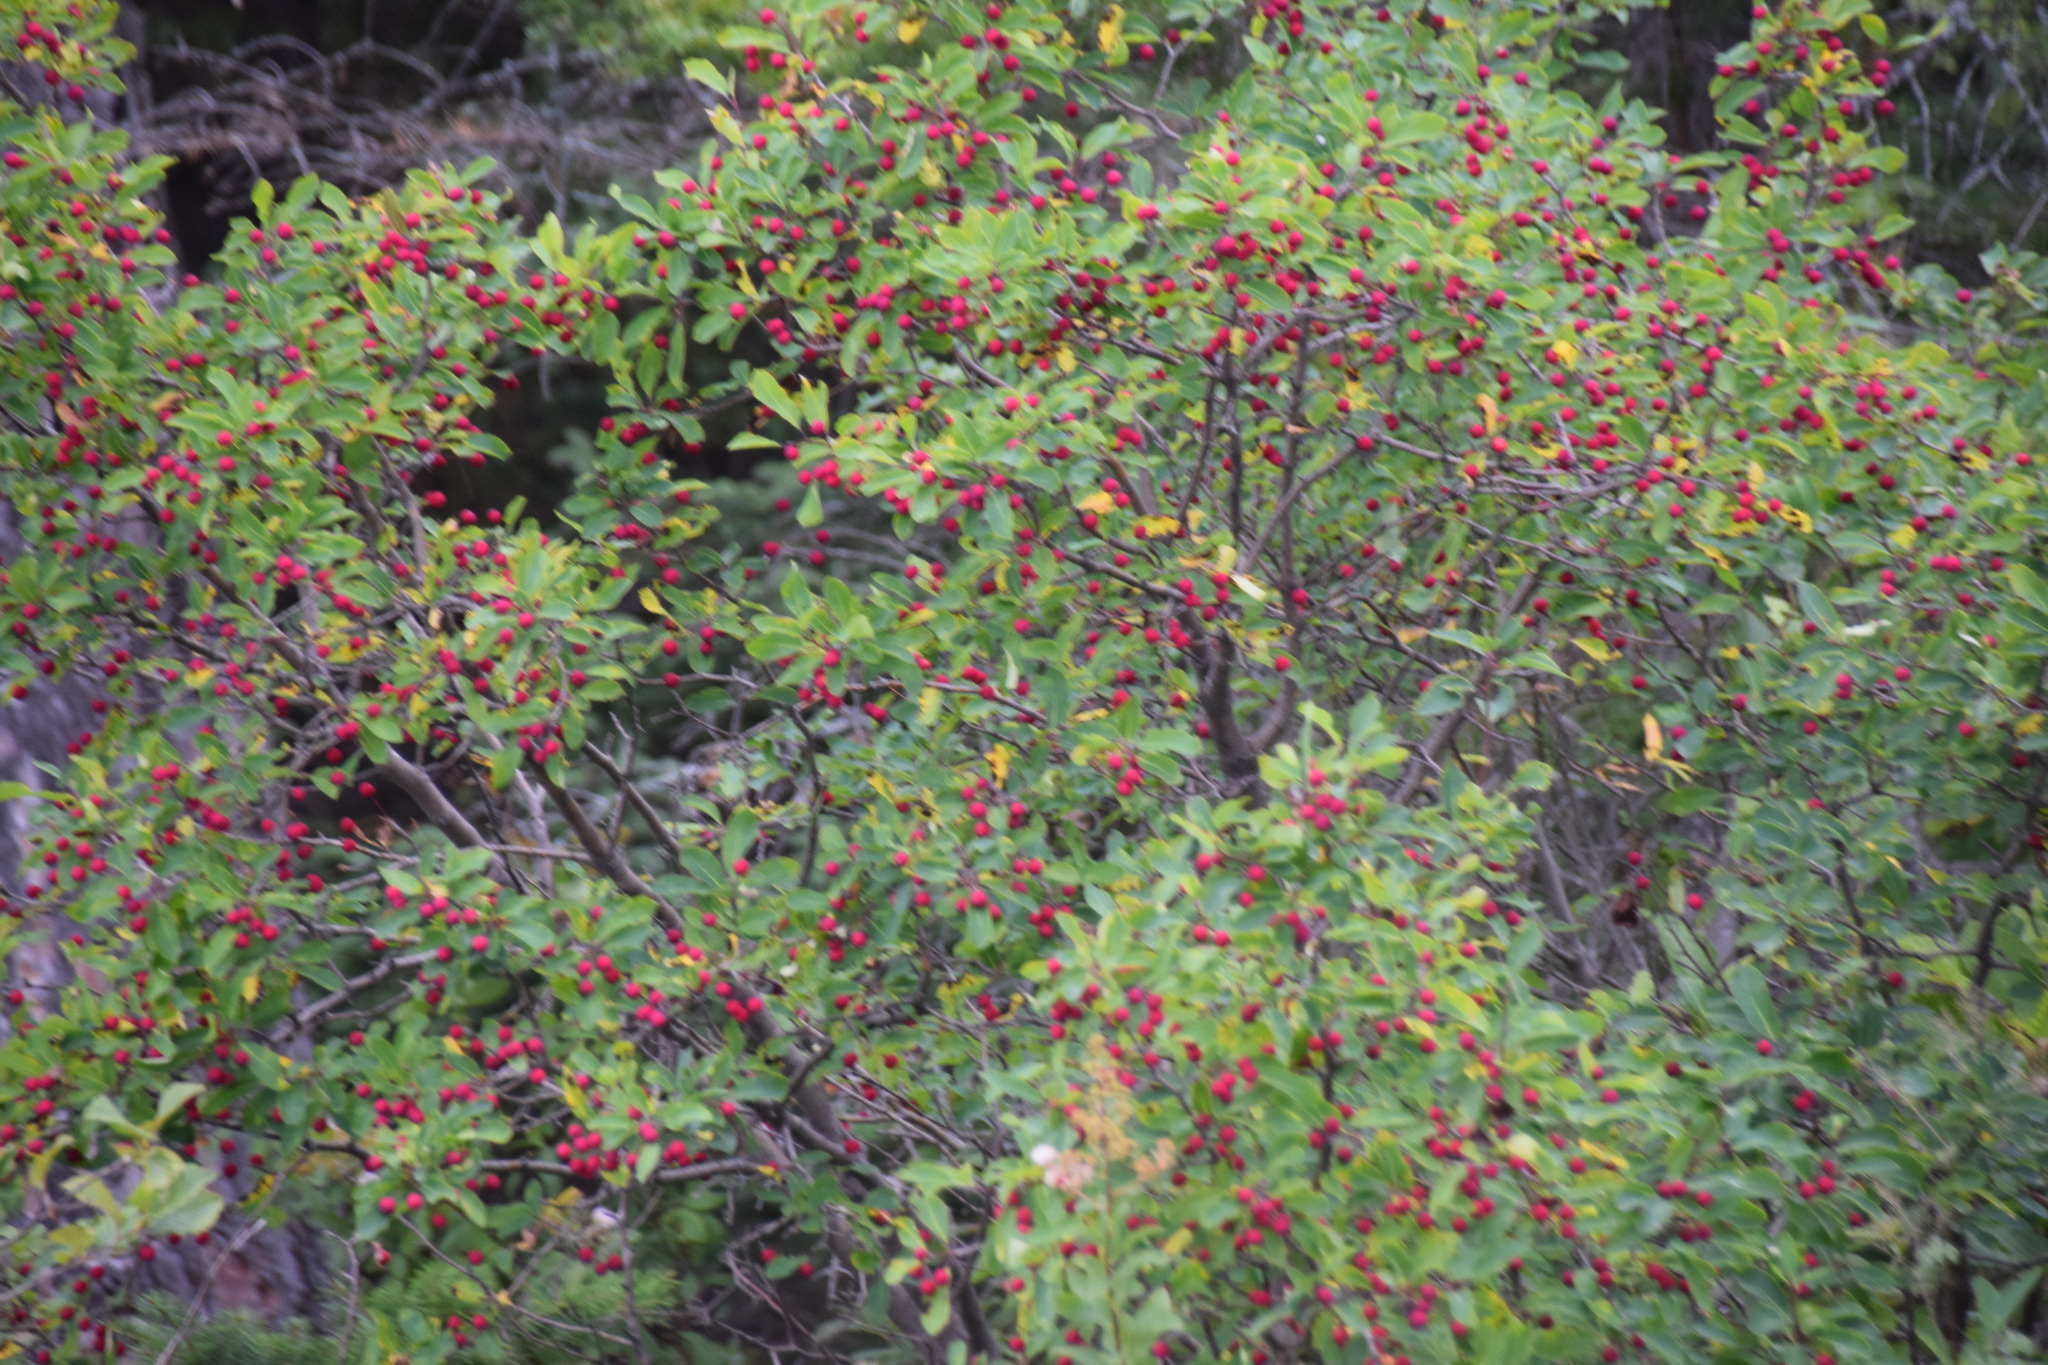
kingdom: Plantae
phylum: Tracheophyta
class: Magnoliopsida
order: Aquifoliales
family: Aquifoliaceae
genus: Ilex
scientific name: Ilex mucronata
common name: Catberry
